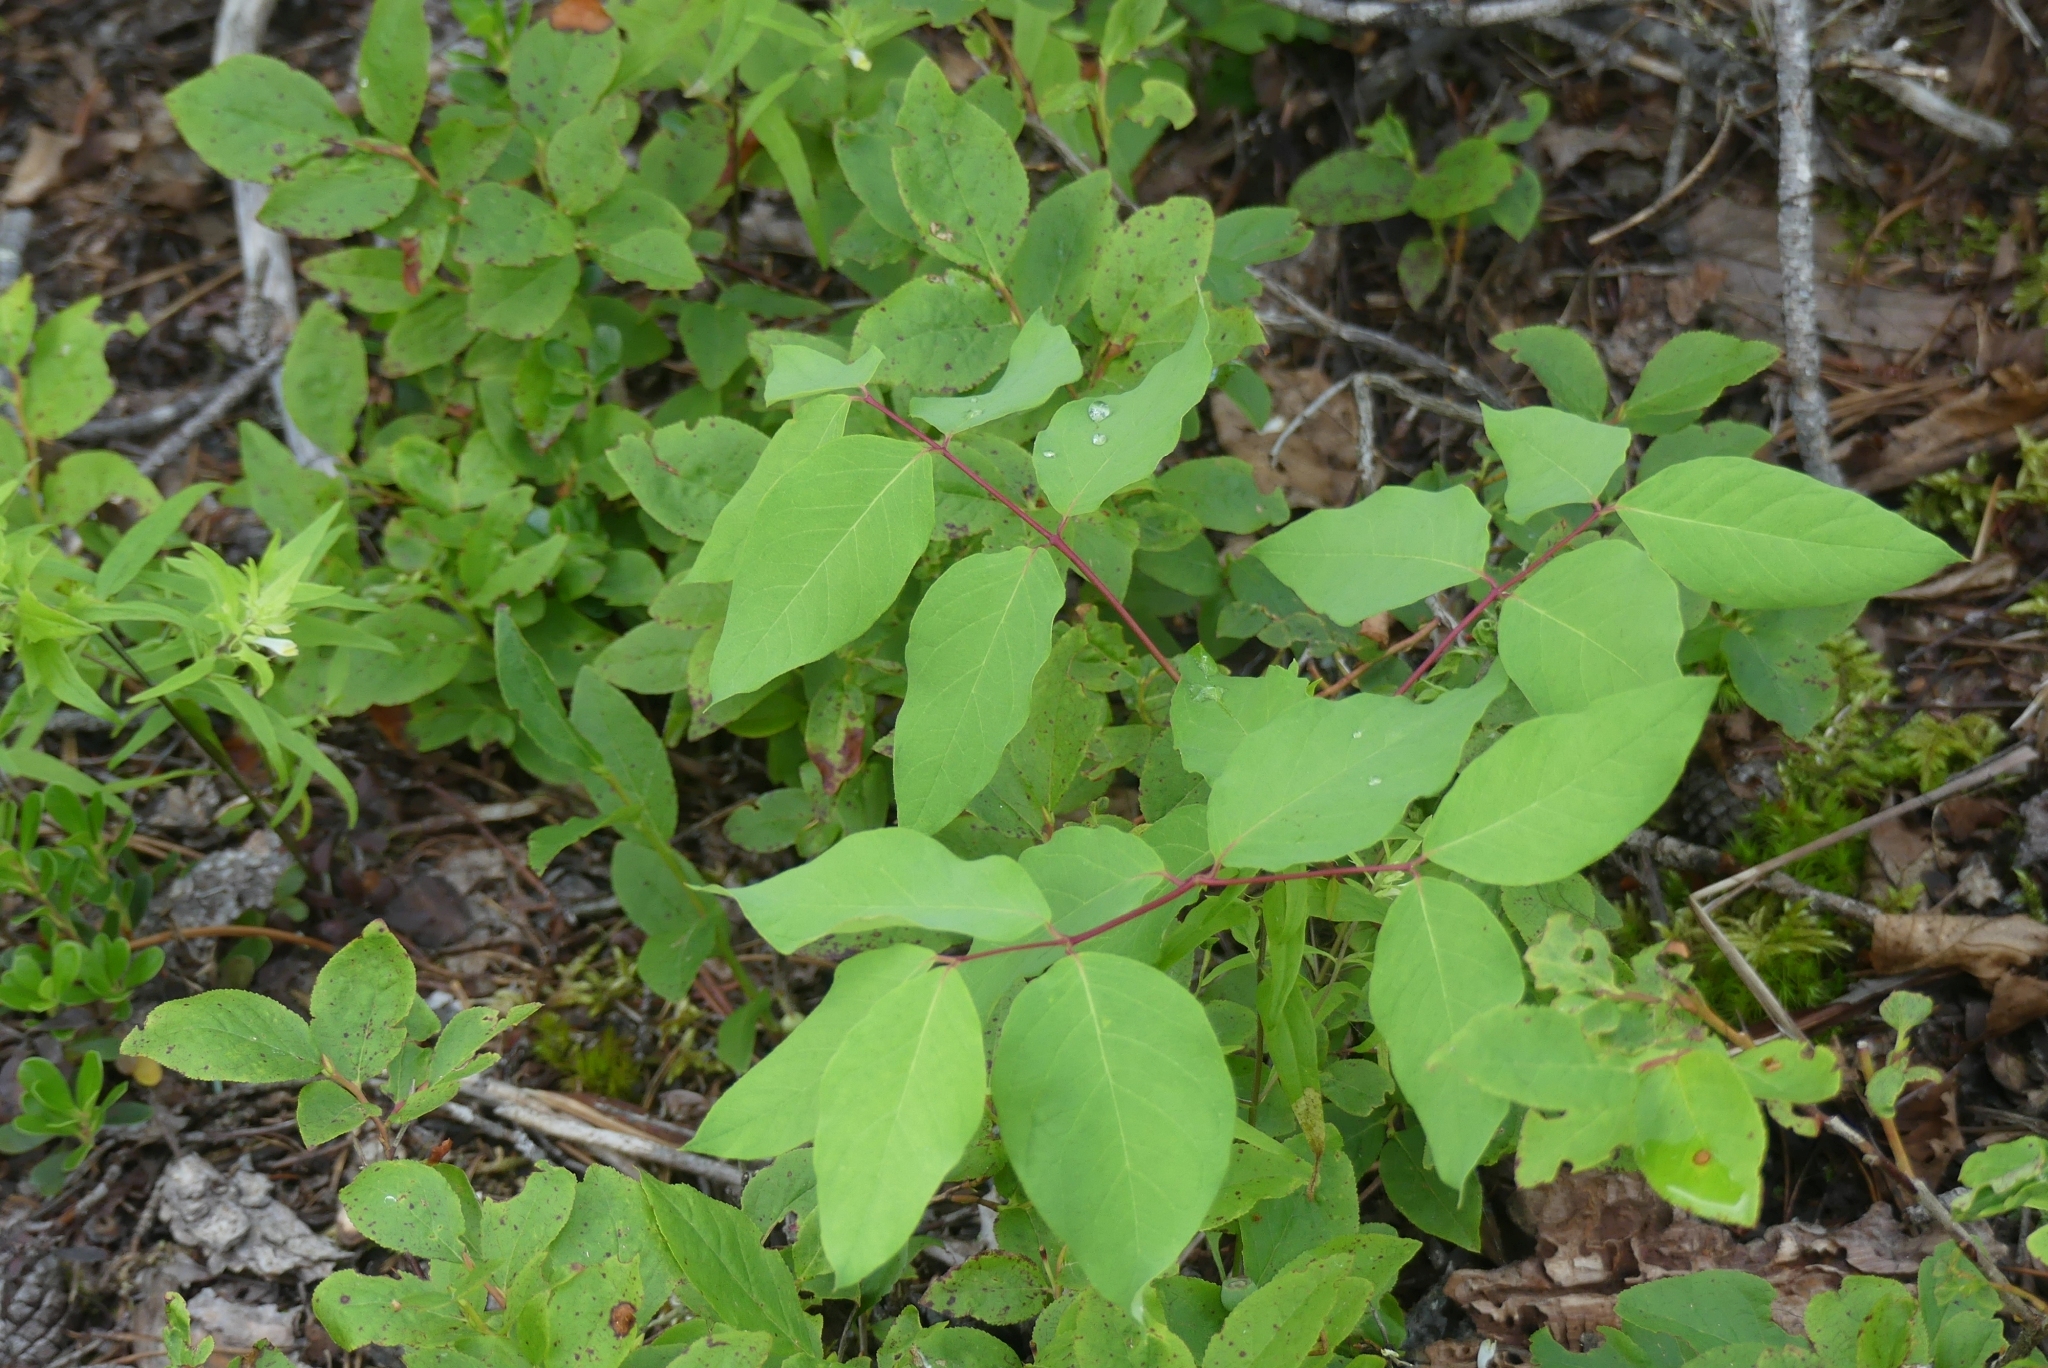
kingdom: Plantae
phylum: Tracheophyta
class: Magnoliopsida
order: Gentianales
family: Apocynaceae
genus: Apocynum
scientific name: Apocynum androsaemifolium
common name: Spreading dogbane
